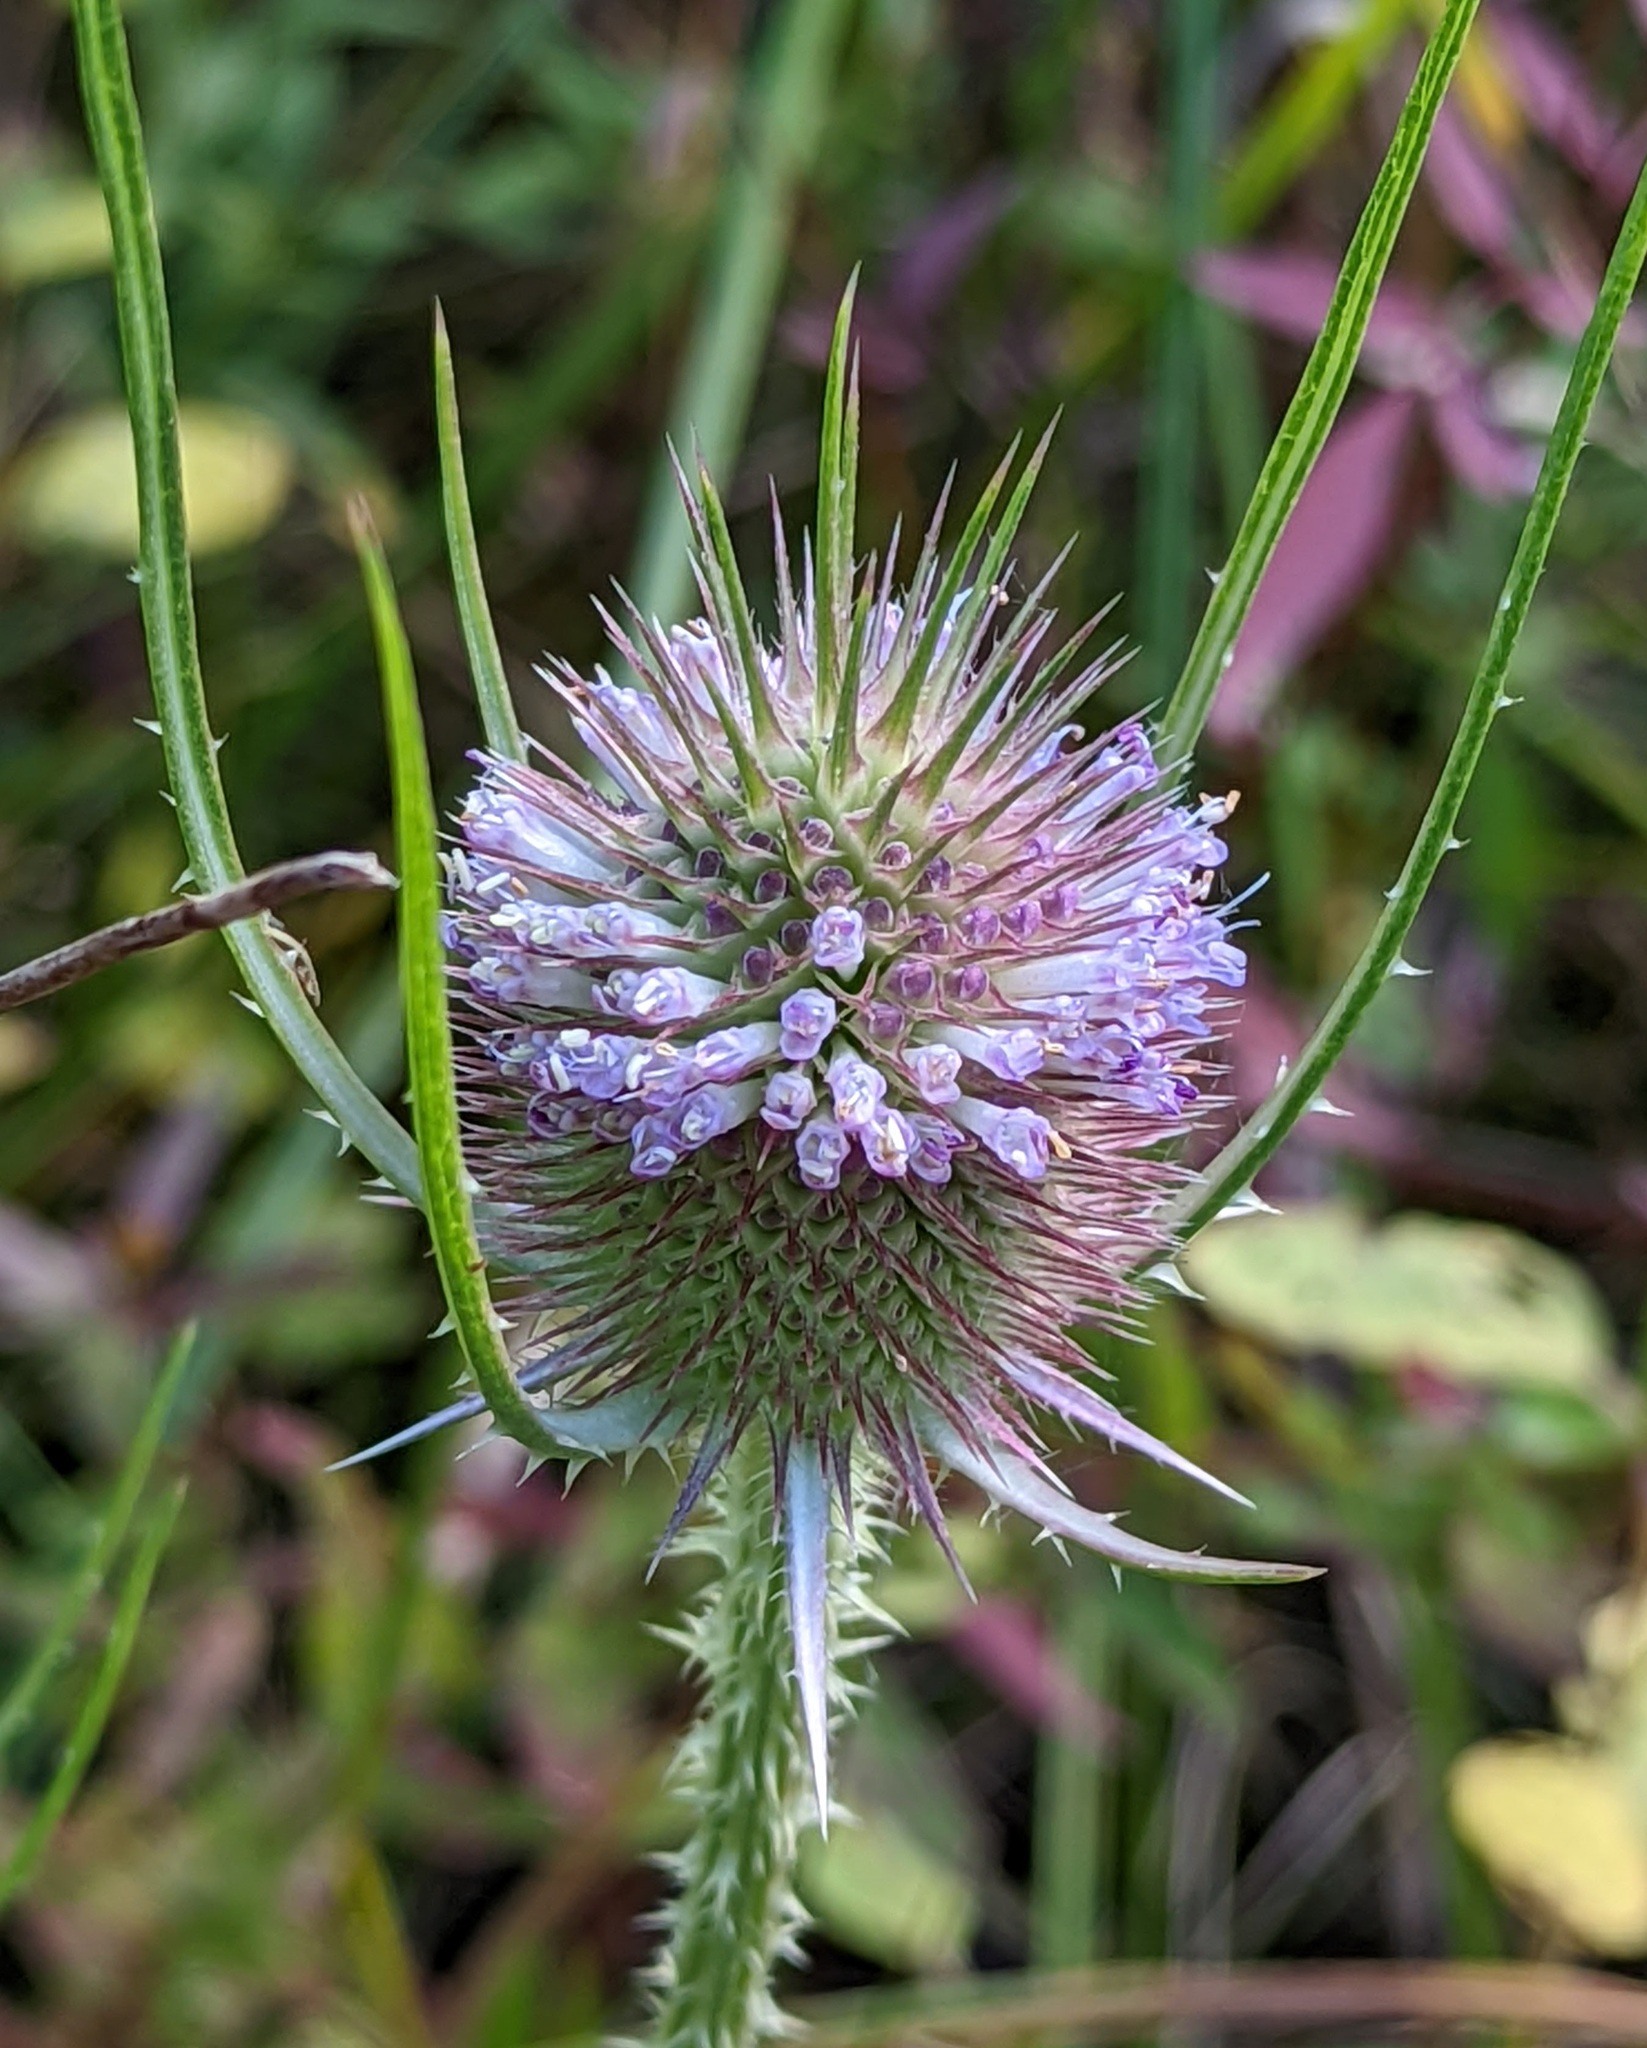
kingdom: Plantae
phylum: Tracheophyta
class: Magnoliopsida
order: Dipsacales
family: Caprifoliaceae
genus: Dipsacus
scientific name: Dipsacus fullonum
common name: Teasel
